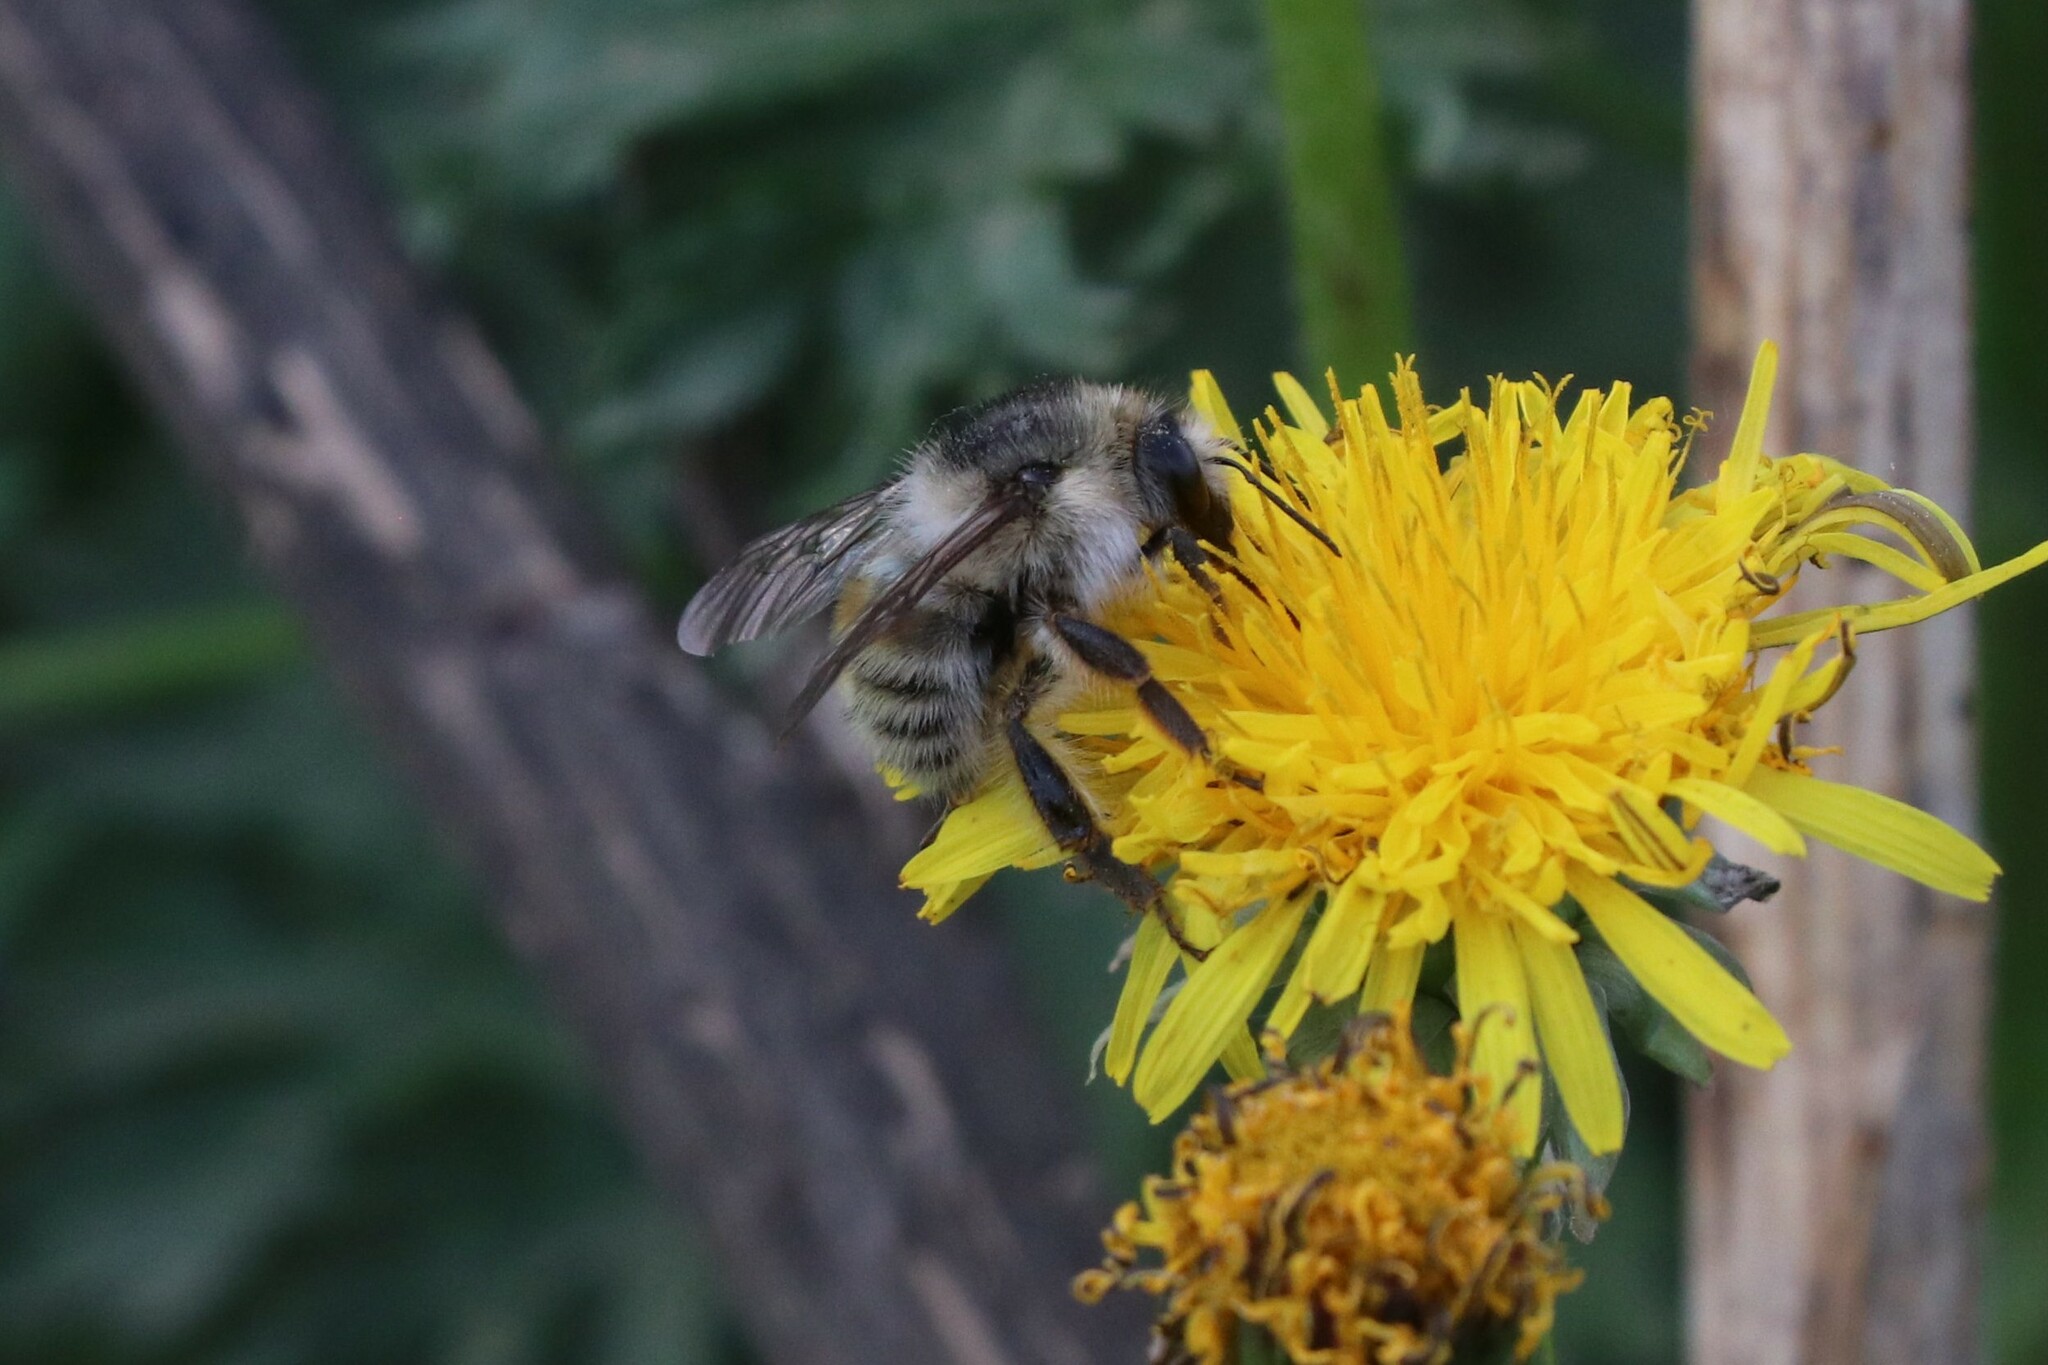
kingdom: Animalia
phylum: Arthropoda
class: Insecta
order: Hymenoptera
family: Apidae
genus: Bombus
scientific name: Bombus deuteronymus
